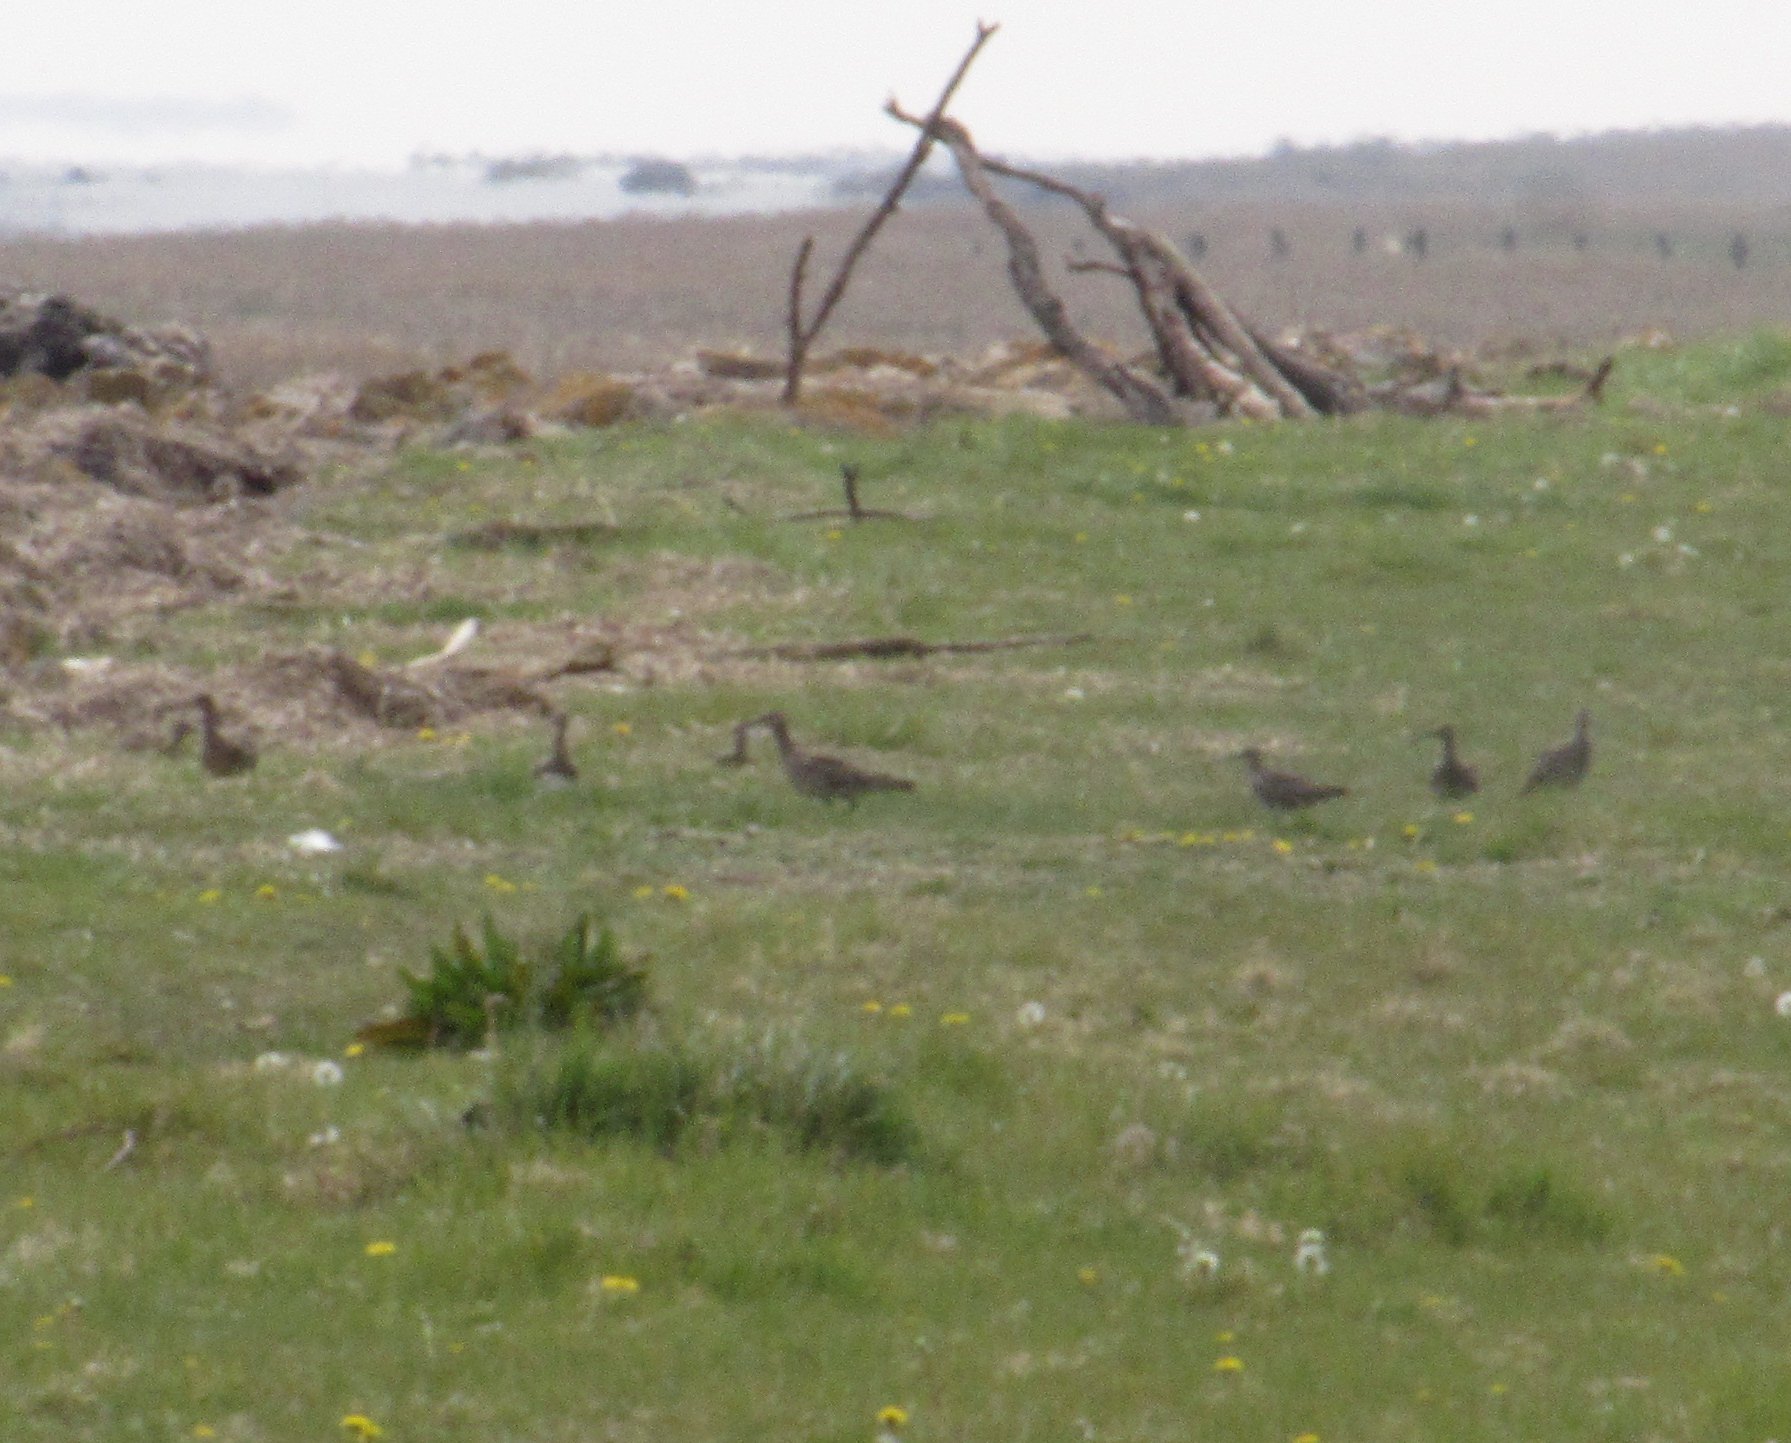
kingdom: Animalia
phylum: Chordata
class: Aves
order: Charadriiformes
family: Scolopacidae
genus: Numenius
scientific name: Numenius phaeopus
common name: Whimbrel
